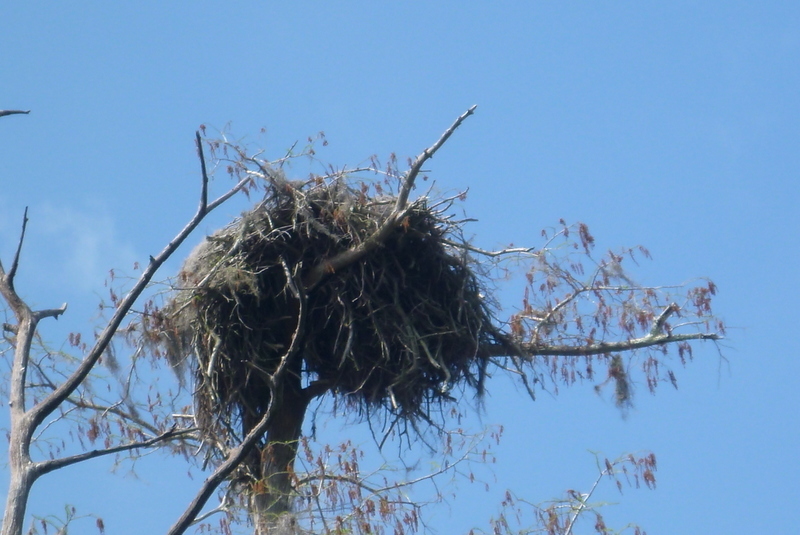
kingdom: Animalia
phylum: Chordata
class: Aves
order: Accipitriformes
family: Pandionidae
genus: Pandion
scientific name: Pandion haliaetus
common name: Osprey
